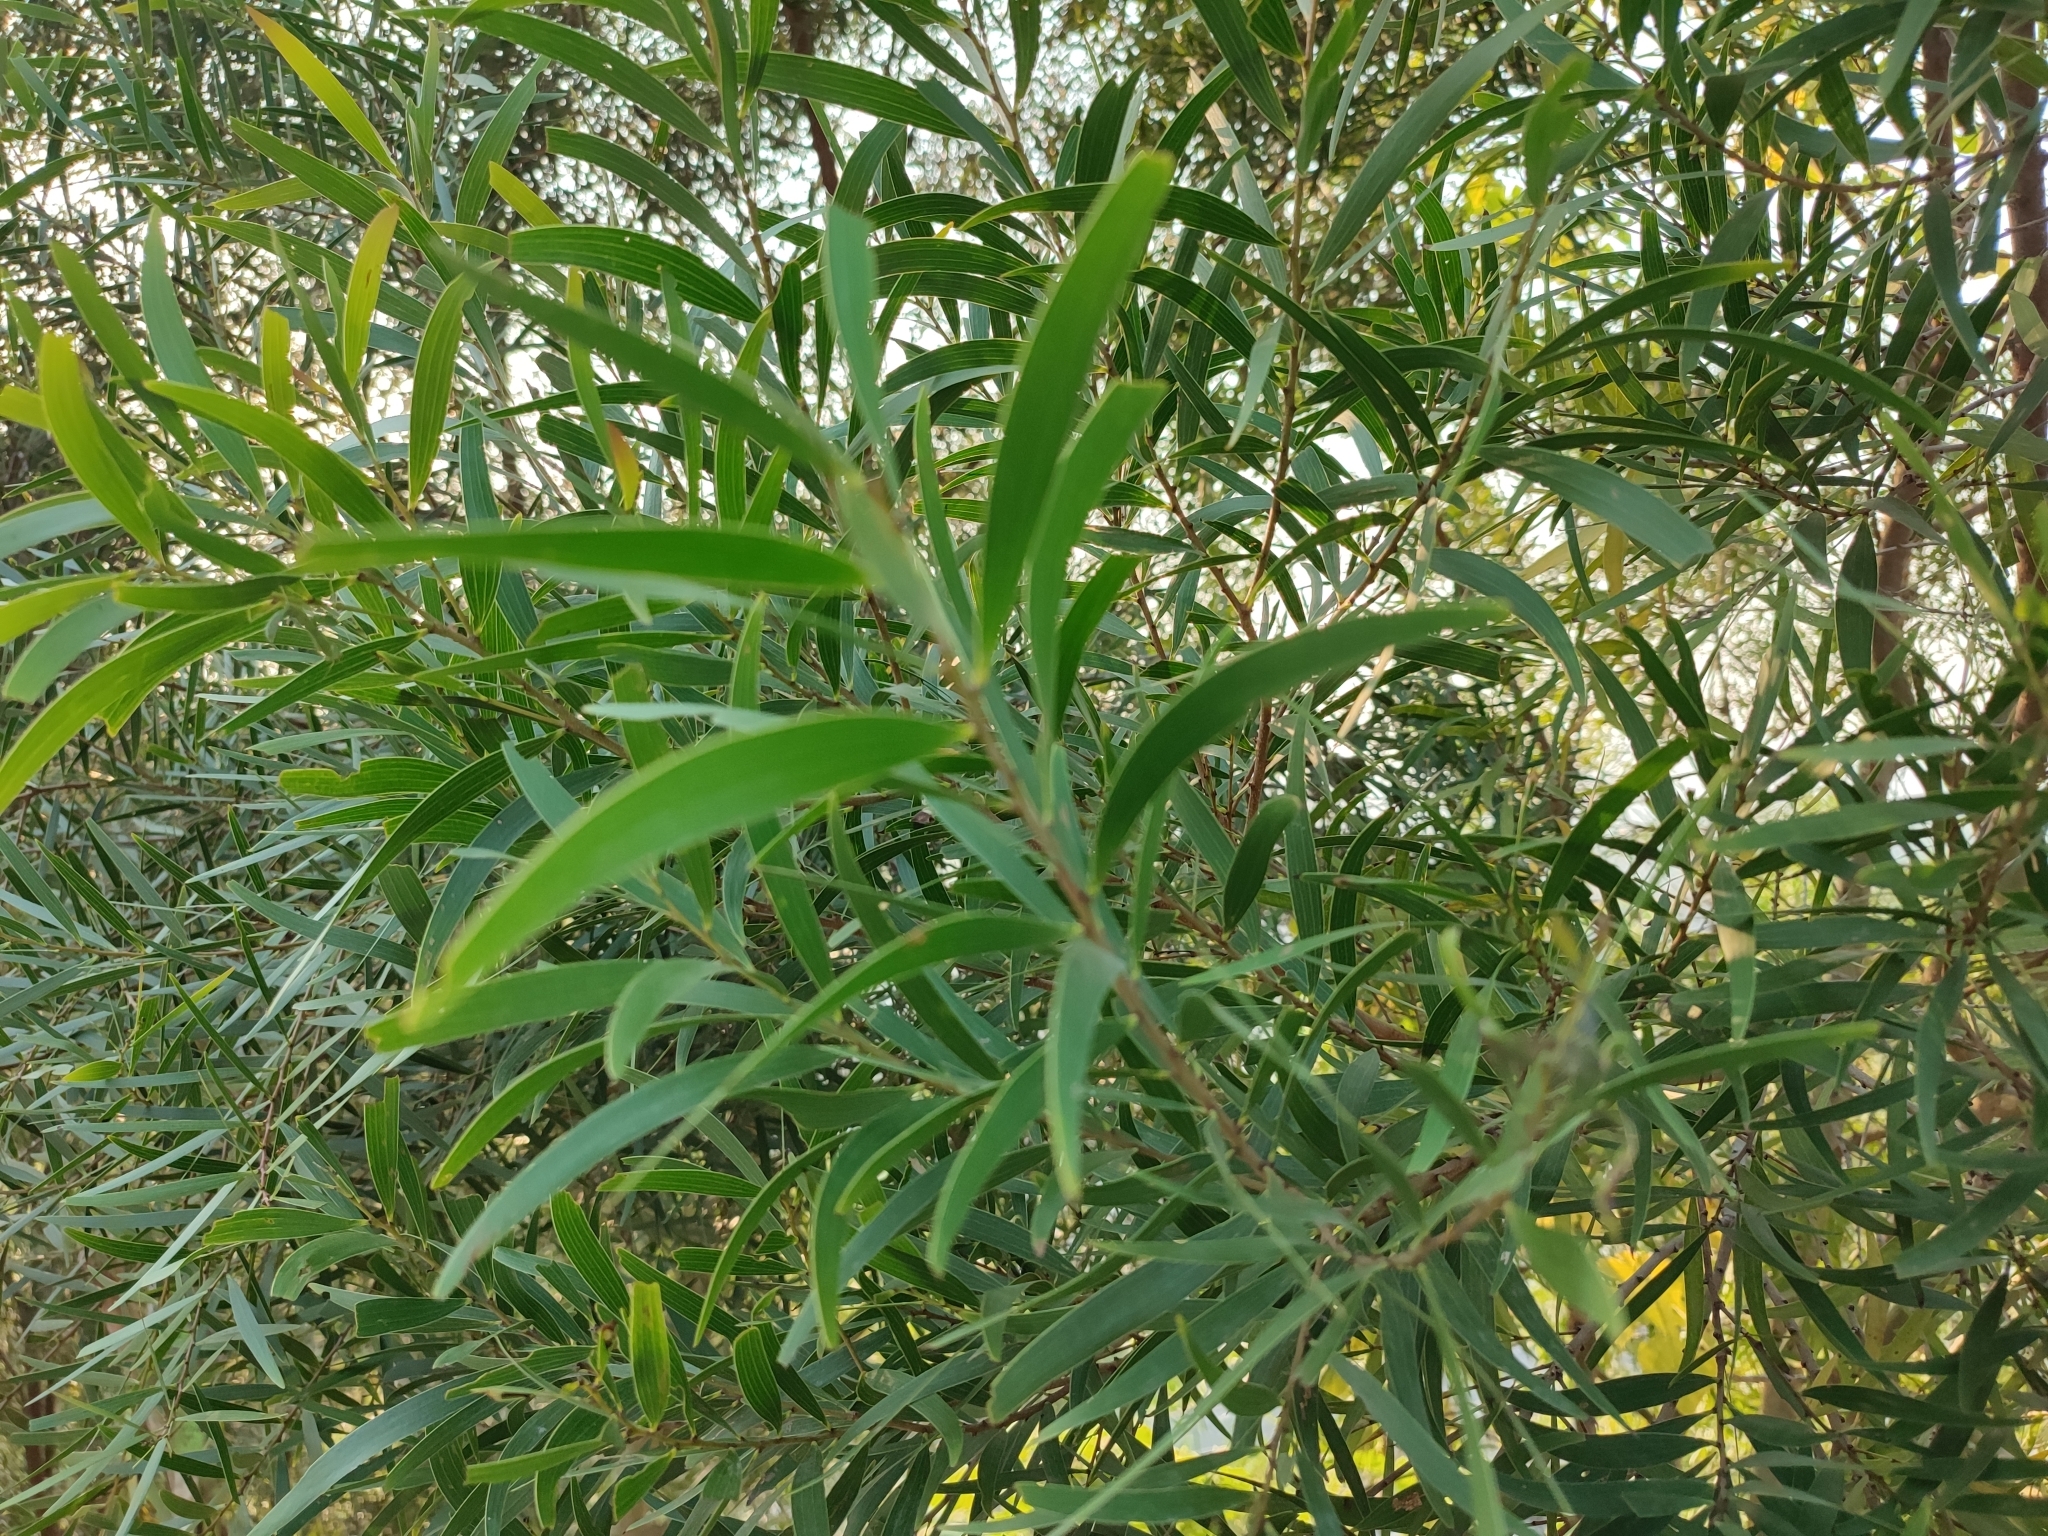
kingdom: Plantae
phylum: Tracheophyta
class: Magnoliopsida
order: Fabales
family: Fabaceae
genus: Acacia
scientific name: Acacia confusa
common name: Formosan koa
